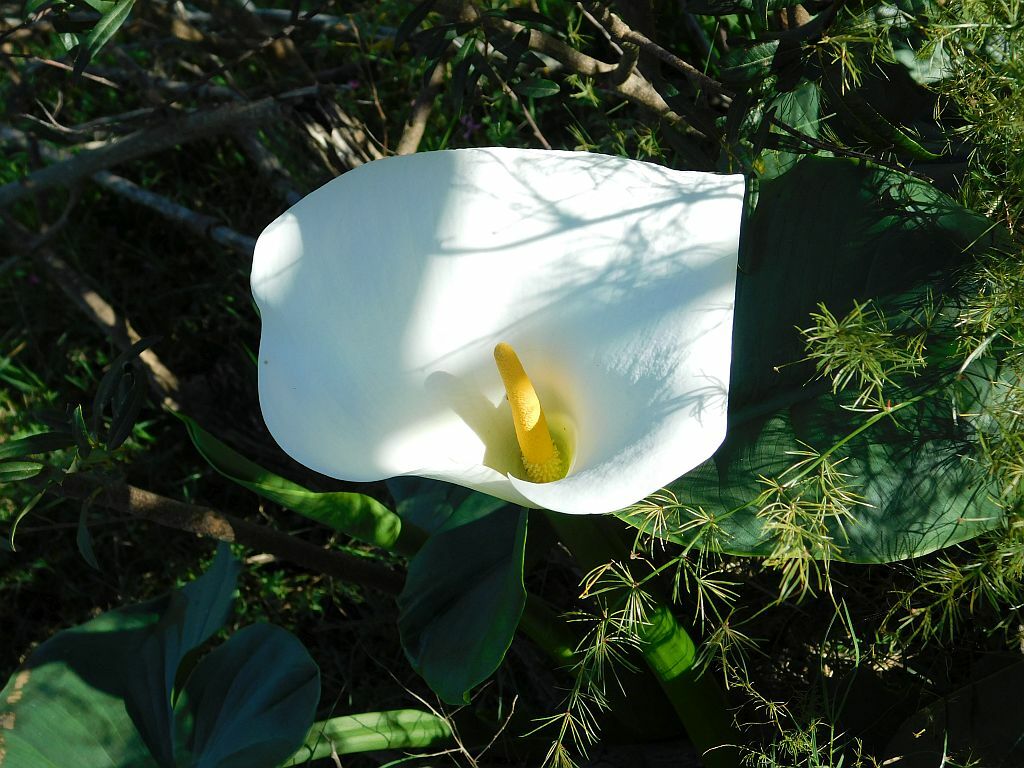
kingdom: Plantae
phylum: Tracheophyta
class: Liliopsida
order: Alismatales
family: Araceae
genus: Zantedeschia
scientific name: Zantedeschia aethiopica
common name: Altar-lily
